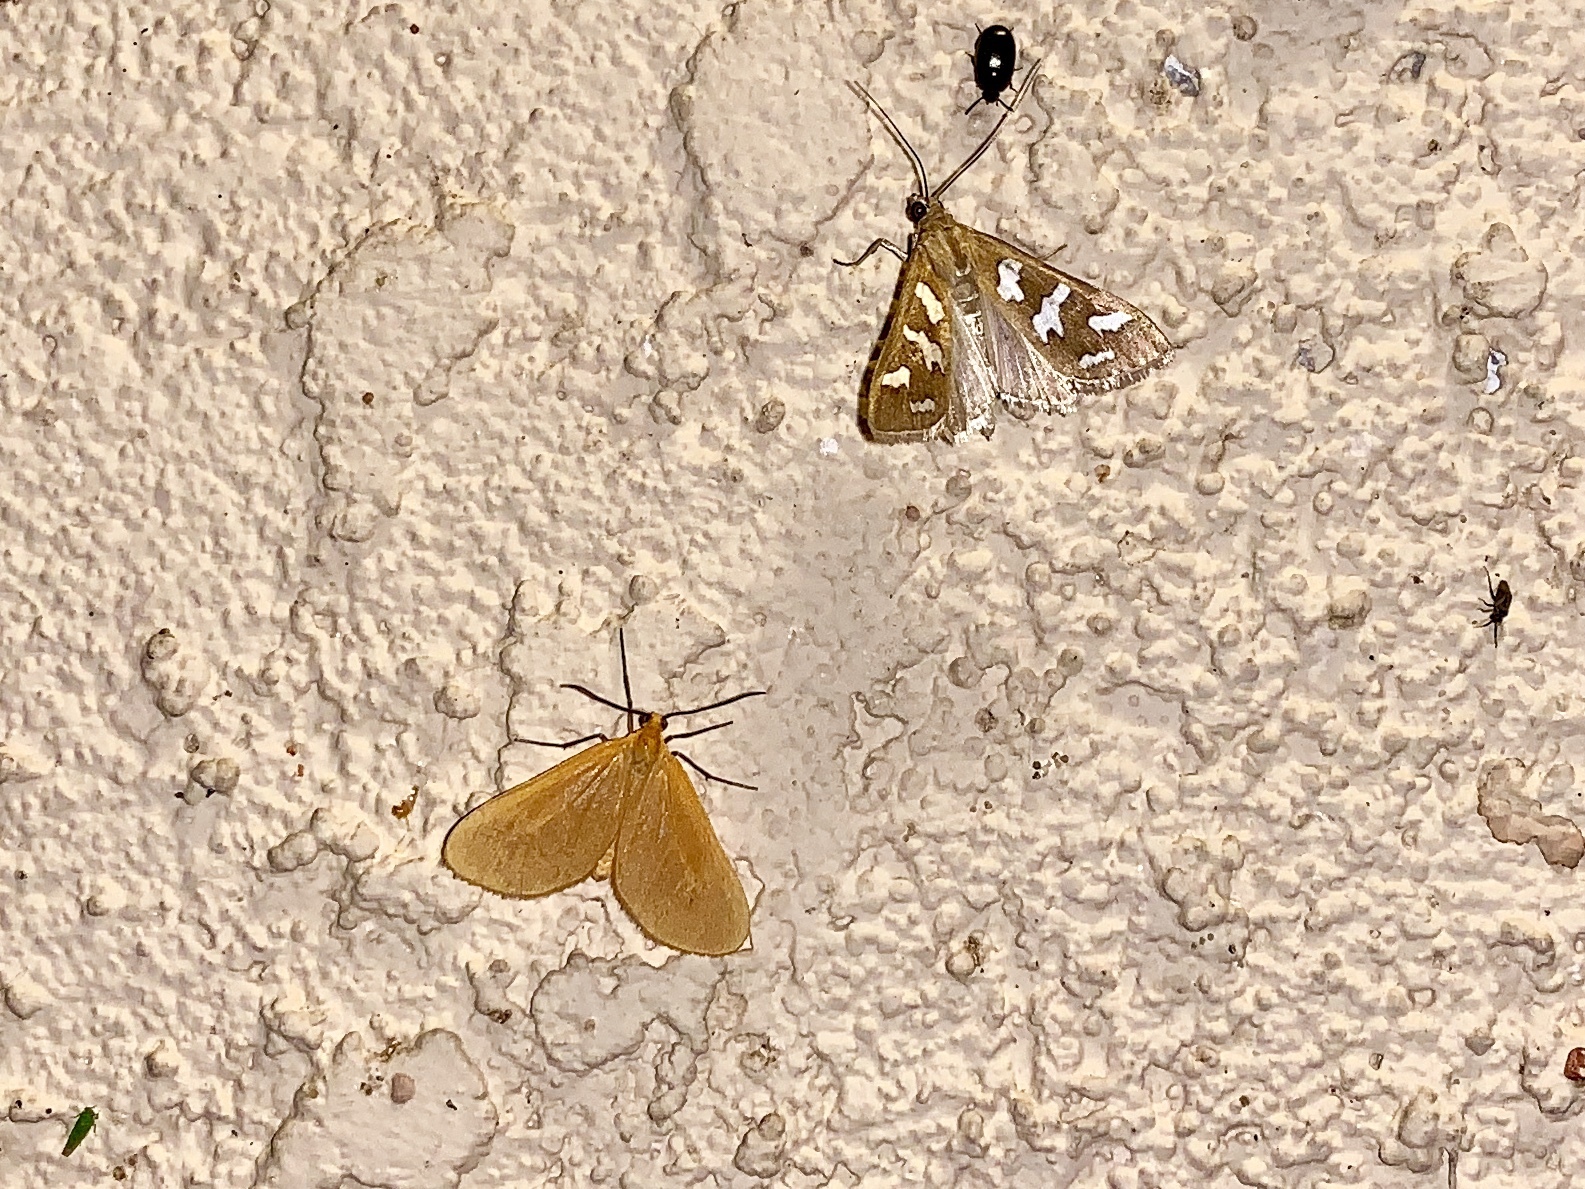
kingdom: Animalia
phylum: Arthropoda
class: Insecta
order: Lepidoptera
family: Geometridae
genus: Eubaphe
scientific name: Eubaphe unicolor
